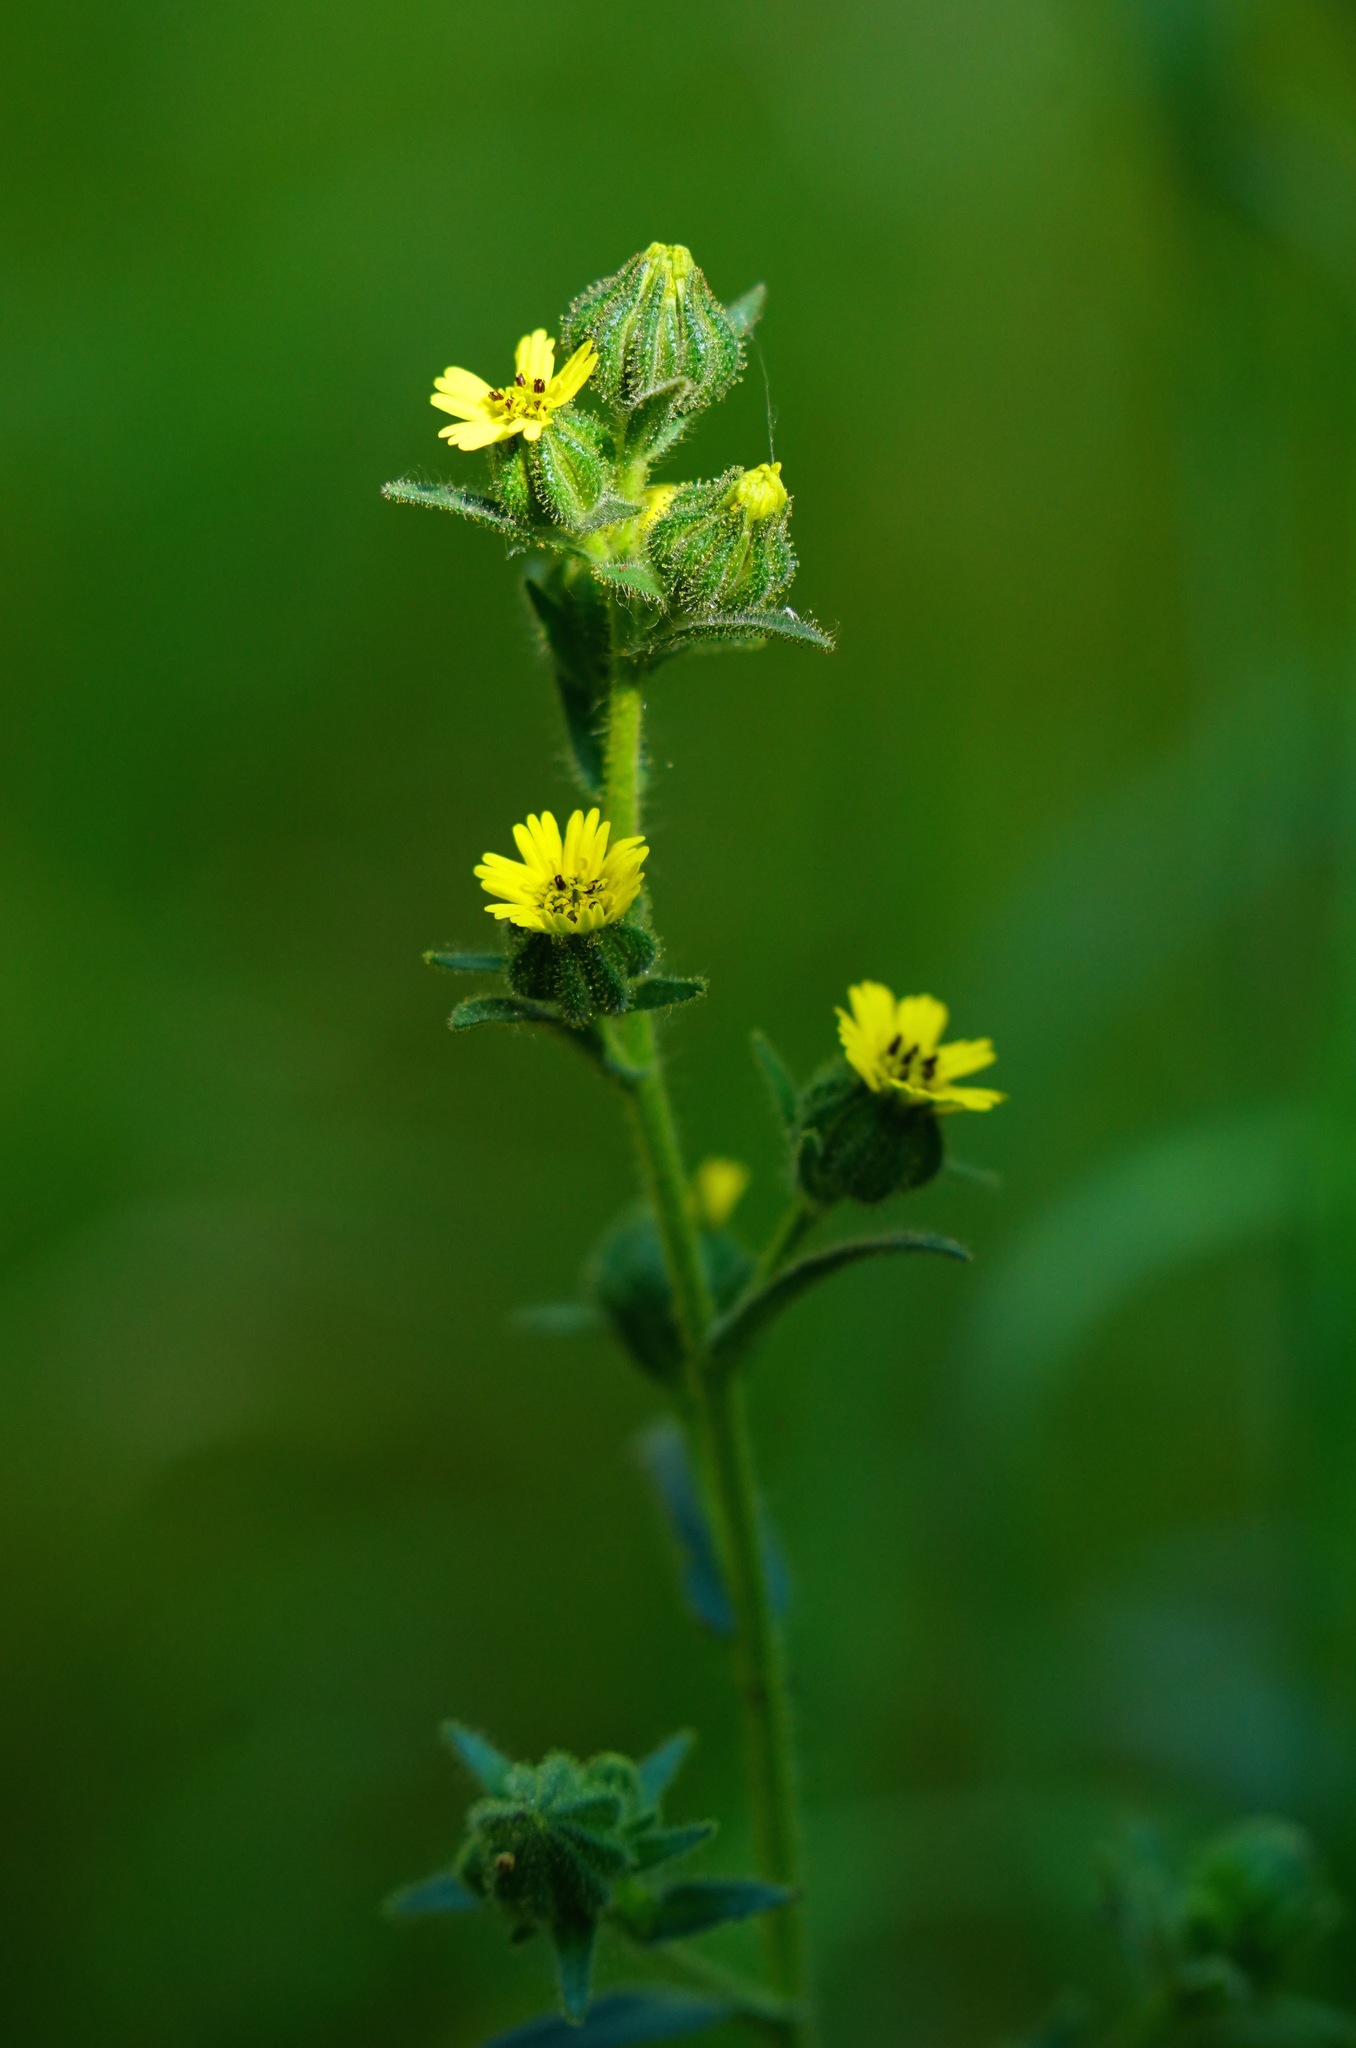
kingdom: Plantae
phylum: Tracheophyta
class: Magnoliopsida
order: Asterales
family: Asteraceae
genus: Madia
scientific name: Madia gracilis
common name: Grassy tarweed
